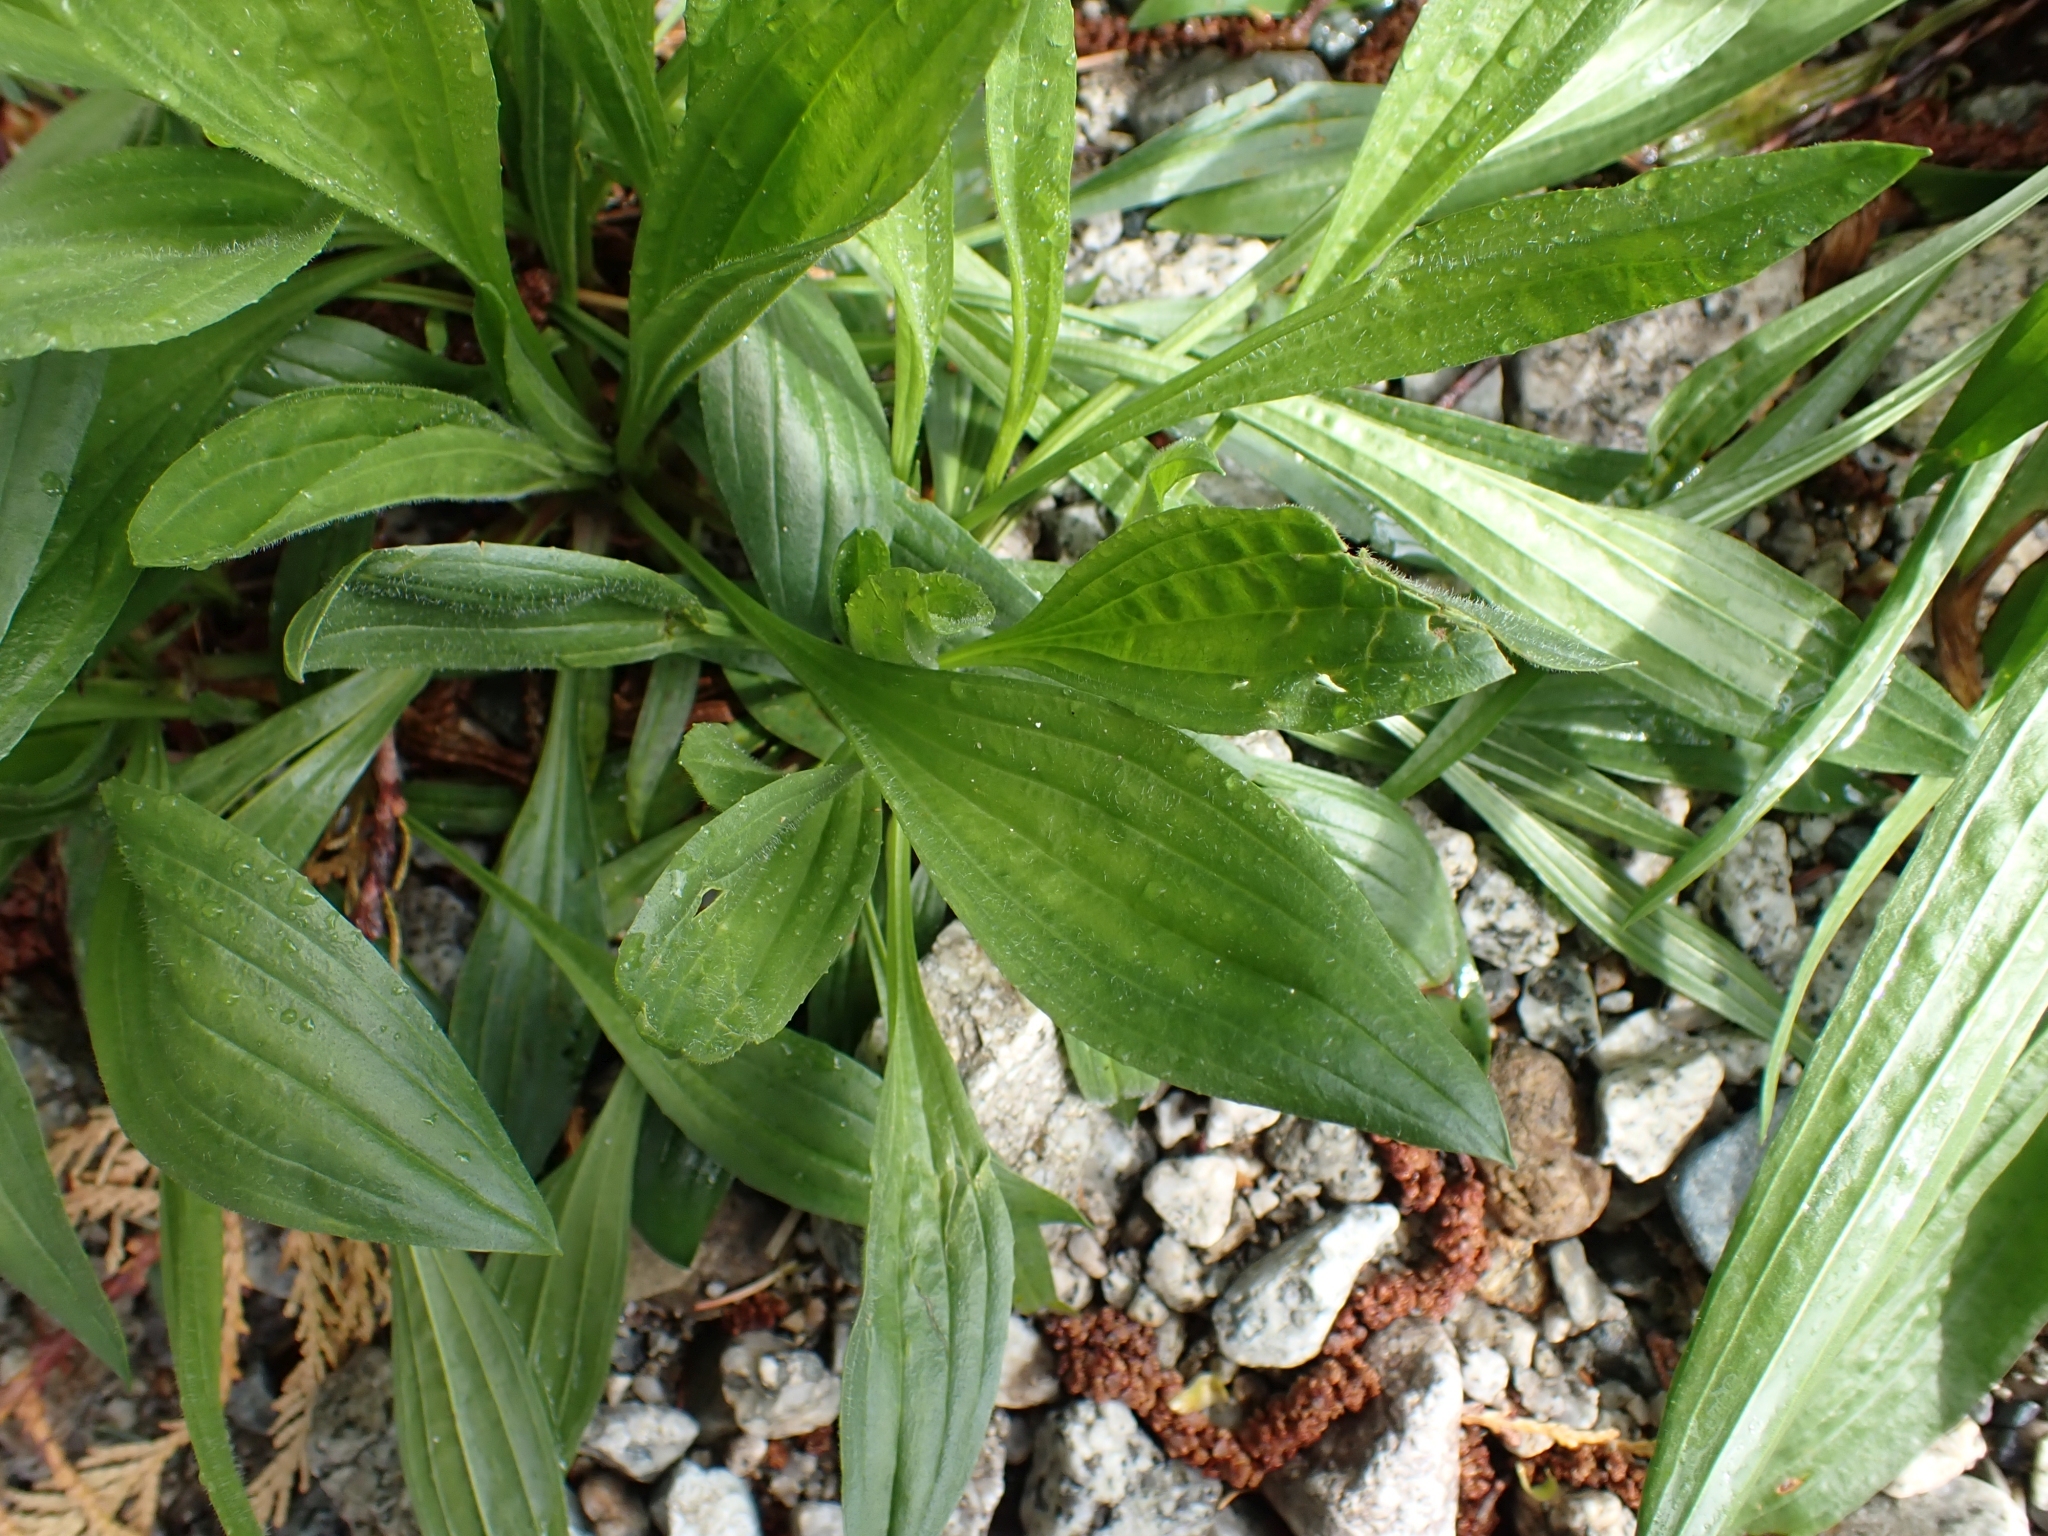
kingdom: Plantae
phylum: Tracheophyta
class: Magnoliopsida
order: Lamiales
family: Plantaginaceae
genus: Plantago
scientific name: Plantago lanceolata
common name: Ribwort plantain
